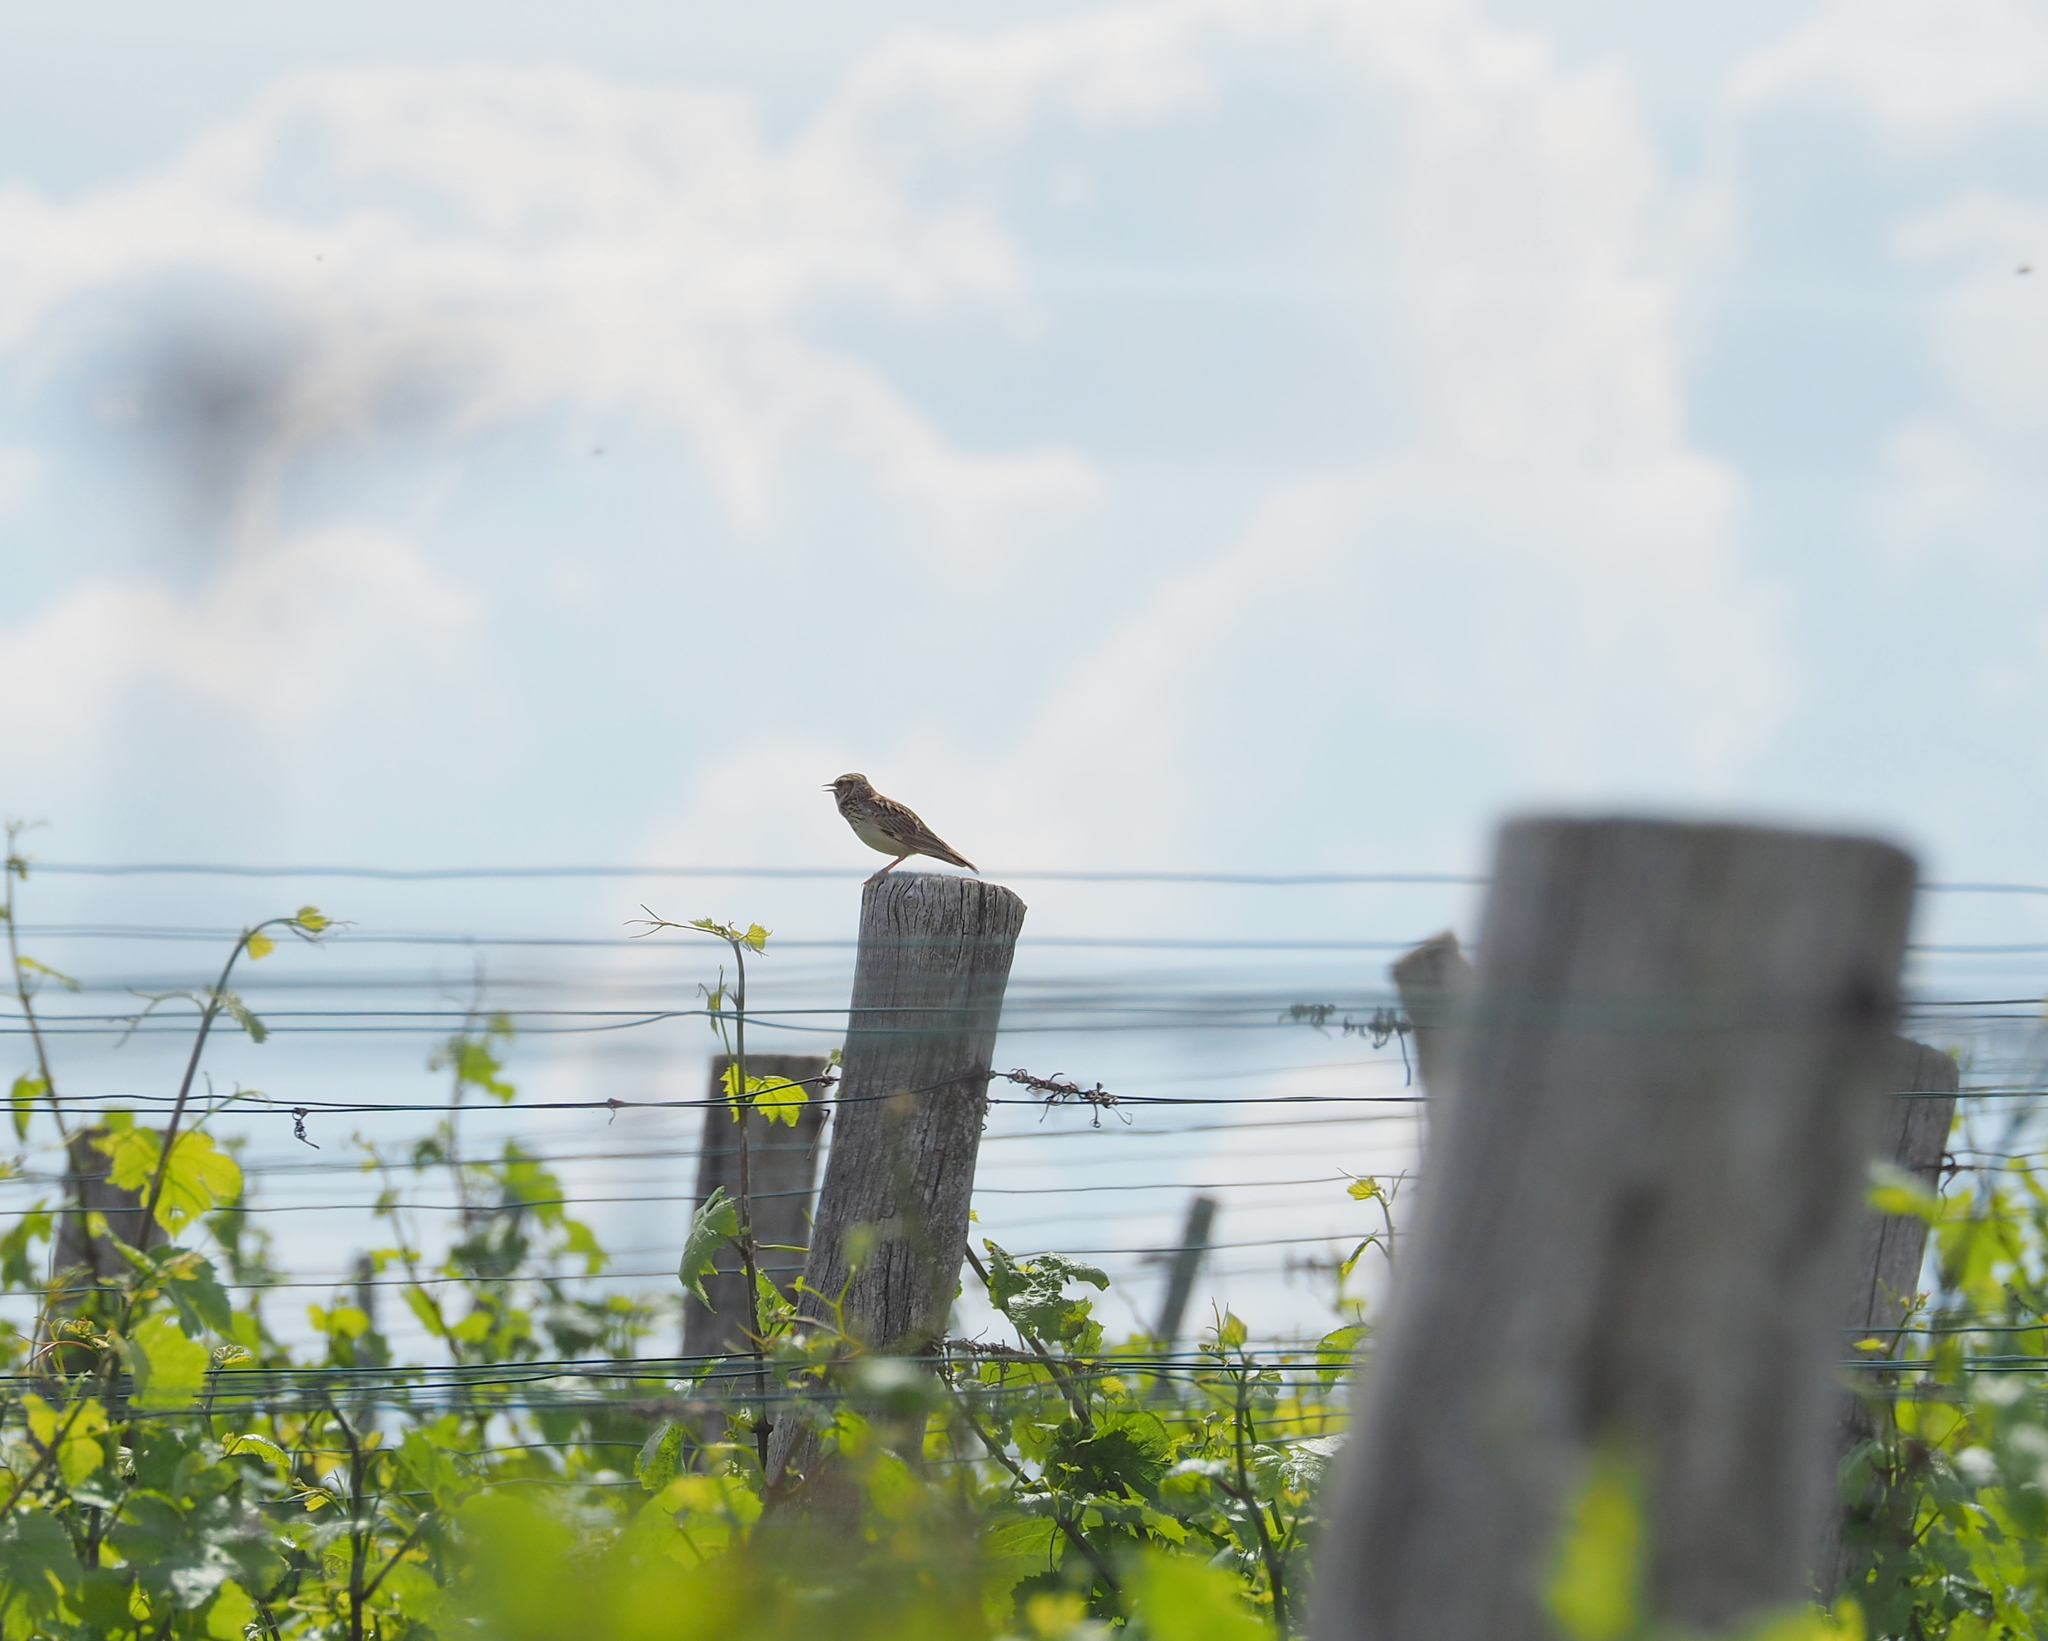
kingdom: Animalia
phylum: Chordata
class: Aves
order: Passeriformes
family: Alaudidae
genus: Lullula
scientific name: Lullula arborea
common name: Woodlark
